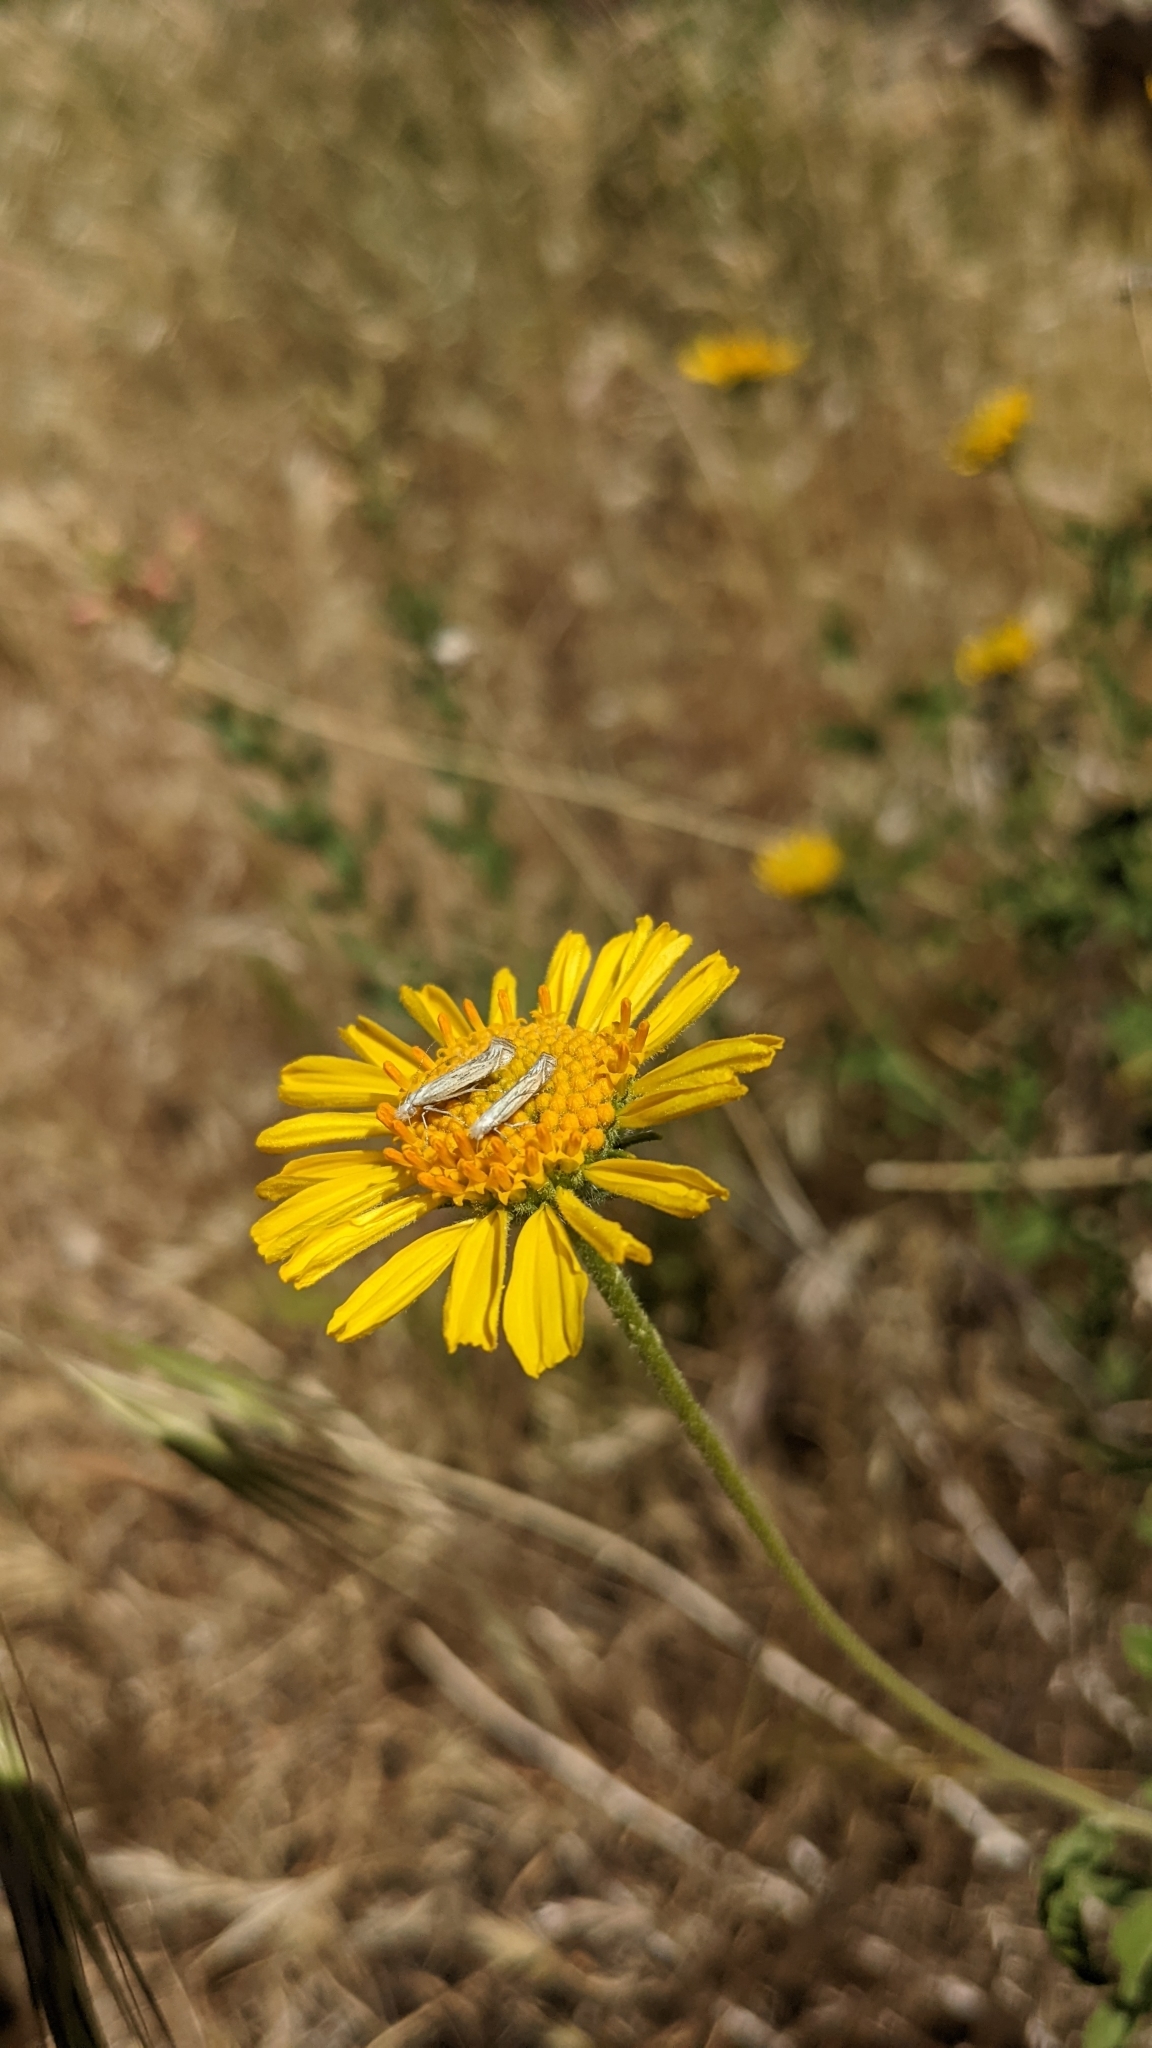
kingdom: Plantae
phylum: Tracheophyta
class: Magnoliopsida
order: Asterales
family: Asteraceae
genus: Encelia
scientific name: Encelia virginensis
